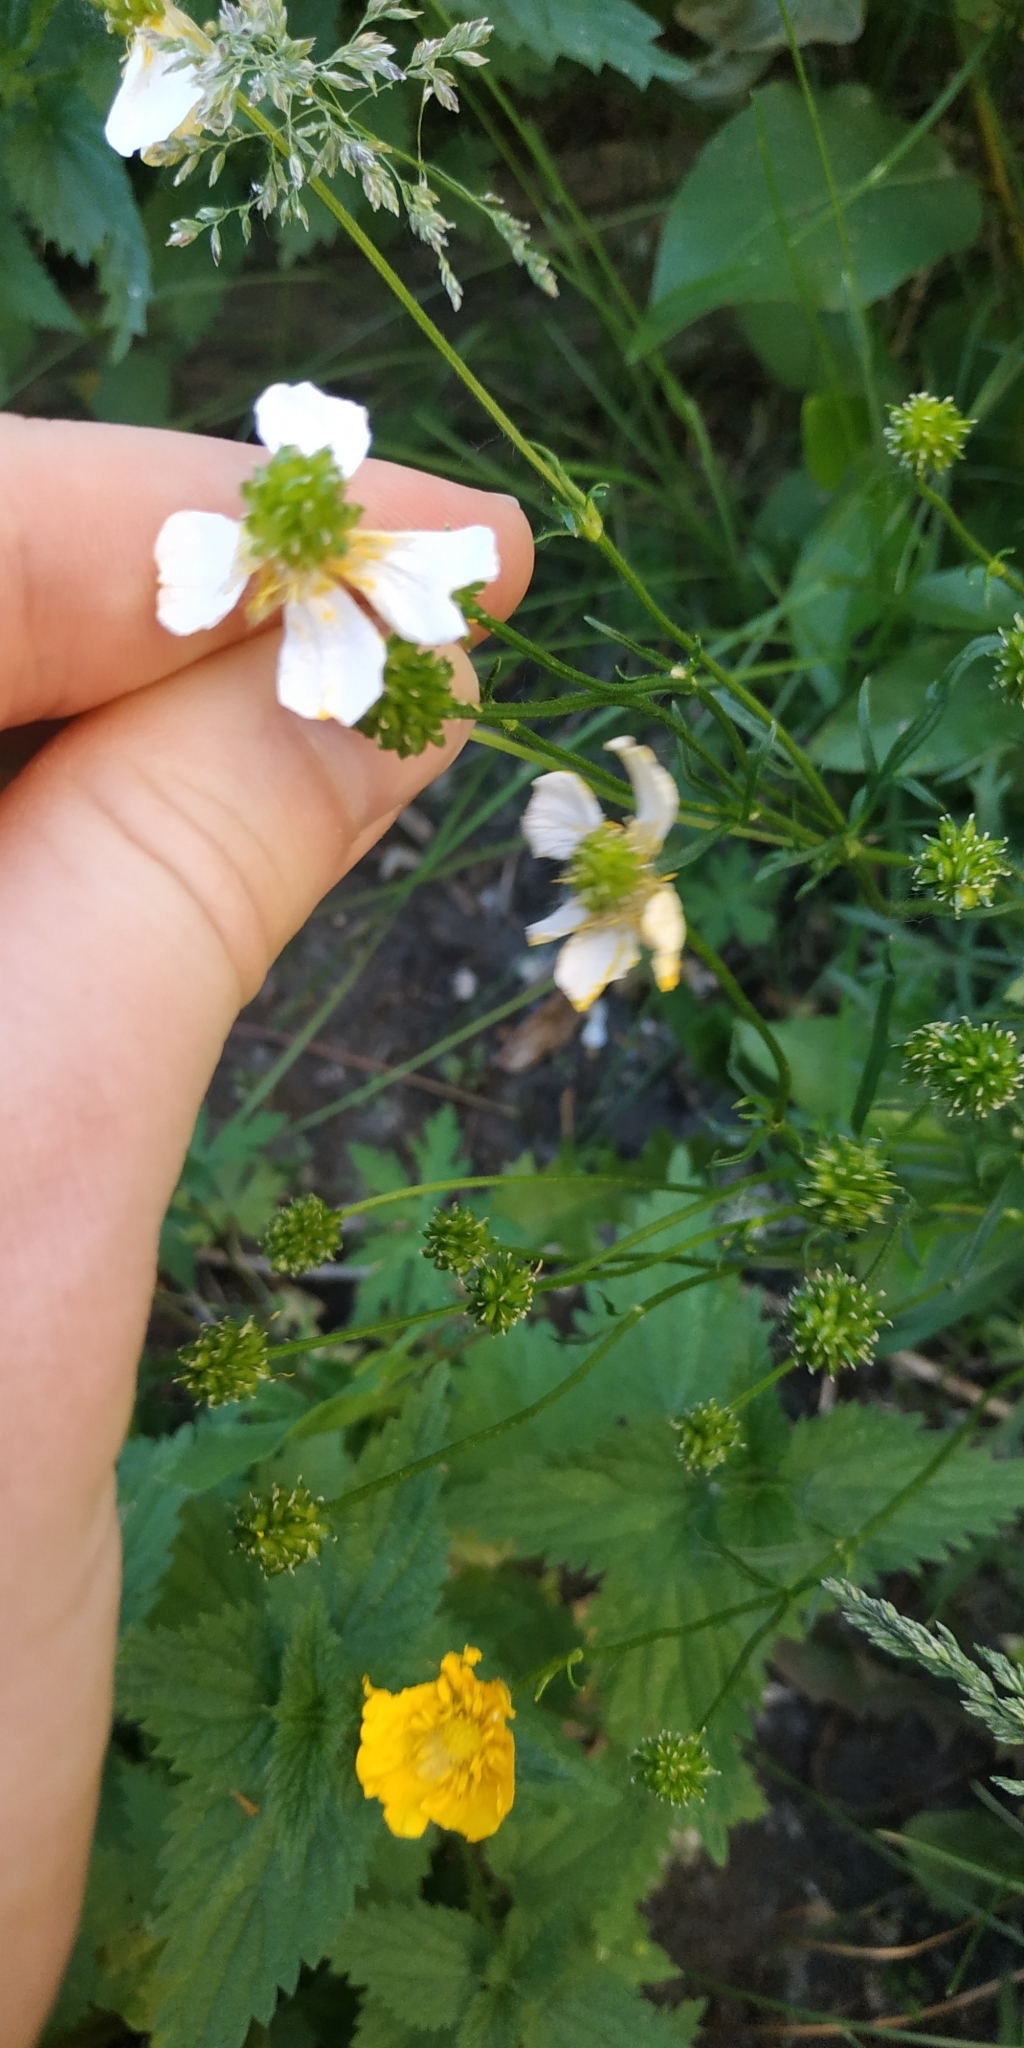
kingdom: Plantae
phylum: Tracheophyta
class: Magnoliopsida
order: Ranunculales
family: Ranunculaceae
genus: Ranunculus
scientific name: Ranunculus polyanthemos
